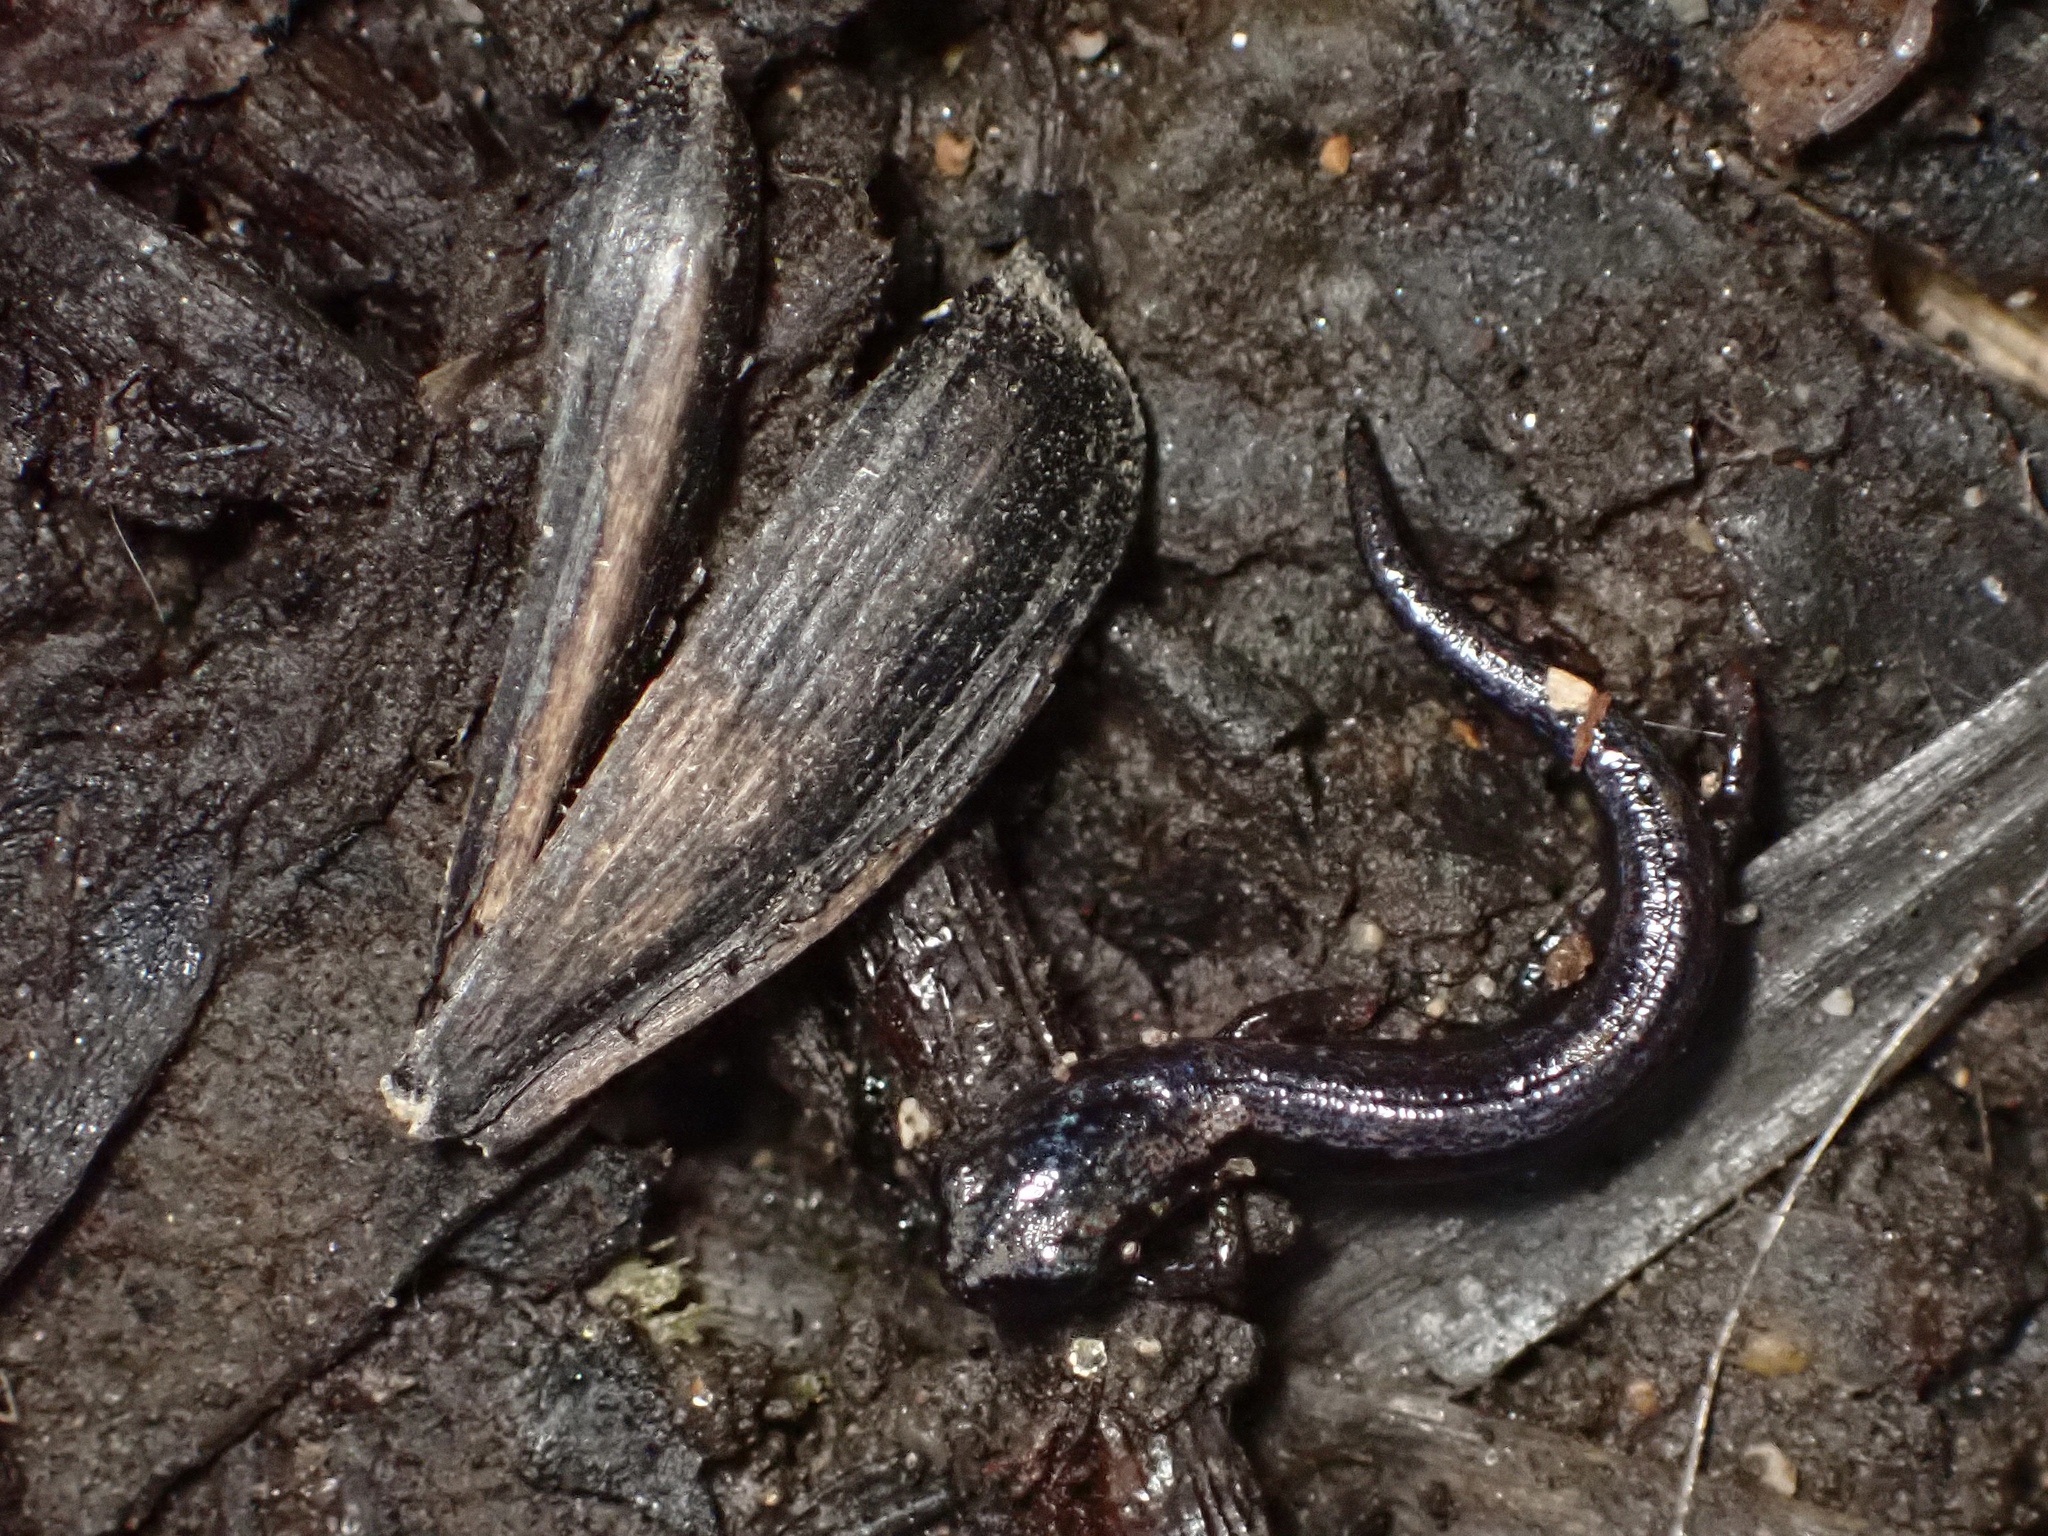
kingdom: Animalia
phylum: Chordata
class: Amphibia
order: Caudata
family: Plethodontidae
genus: Batrachoseps
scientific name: Batrachoseps attenuatus
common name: California slender salamander
